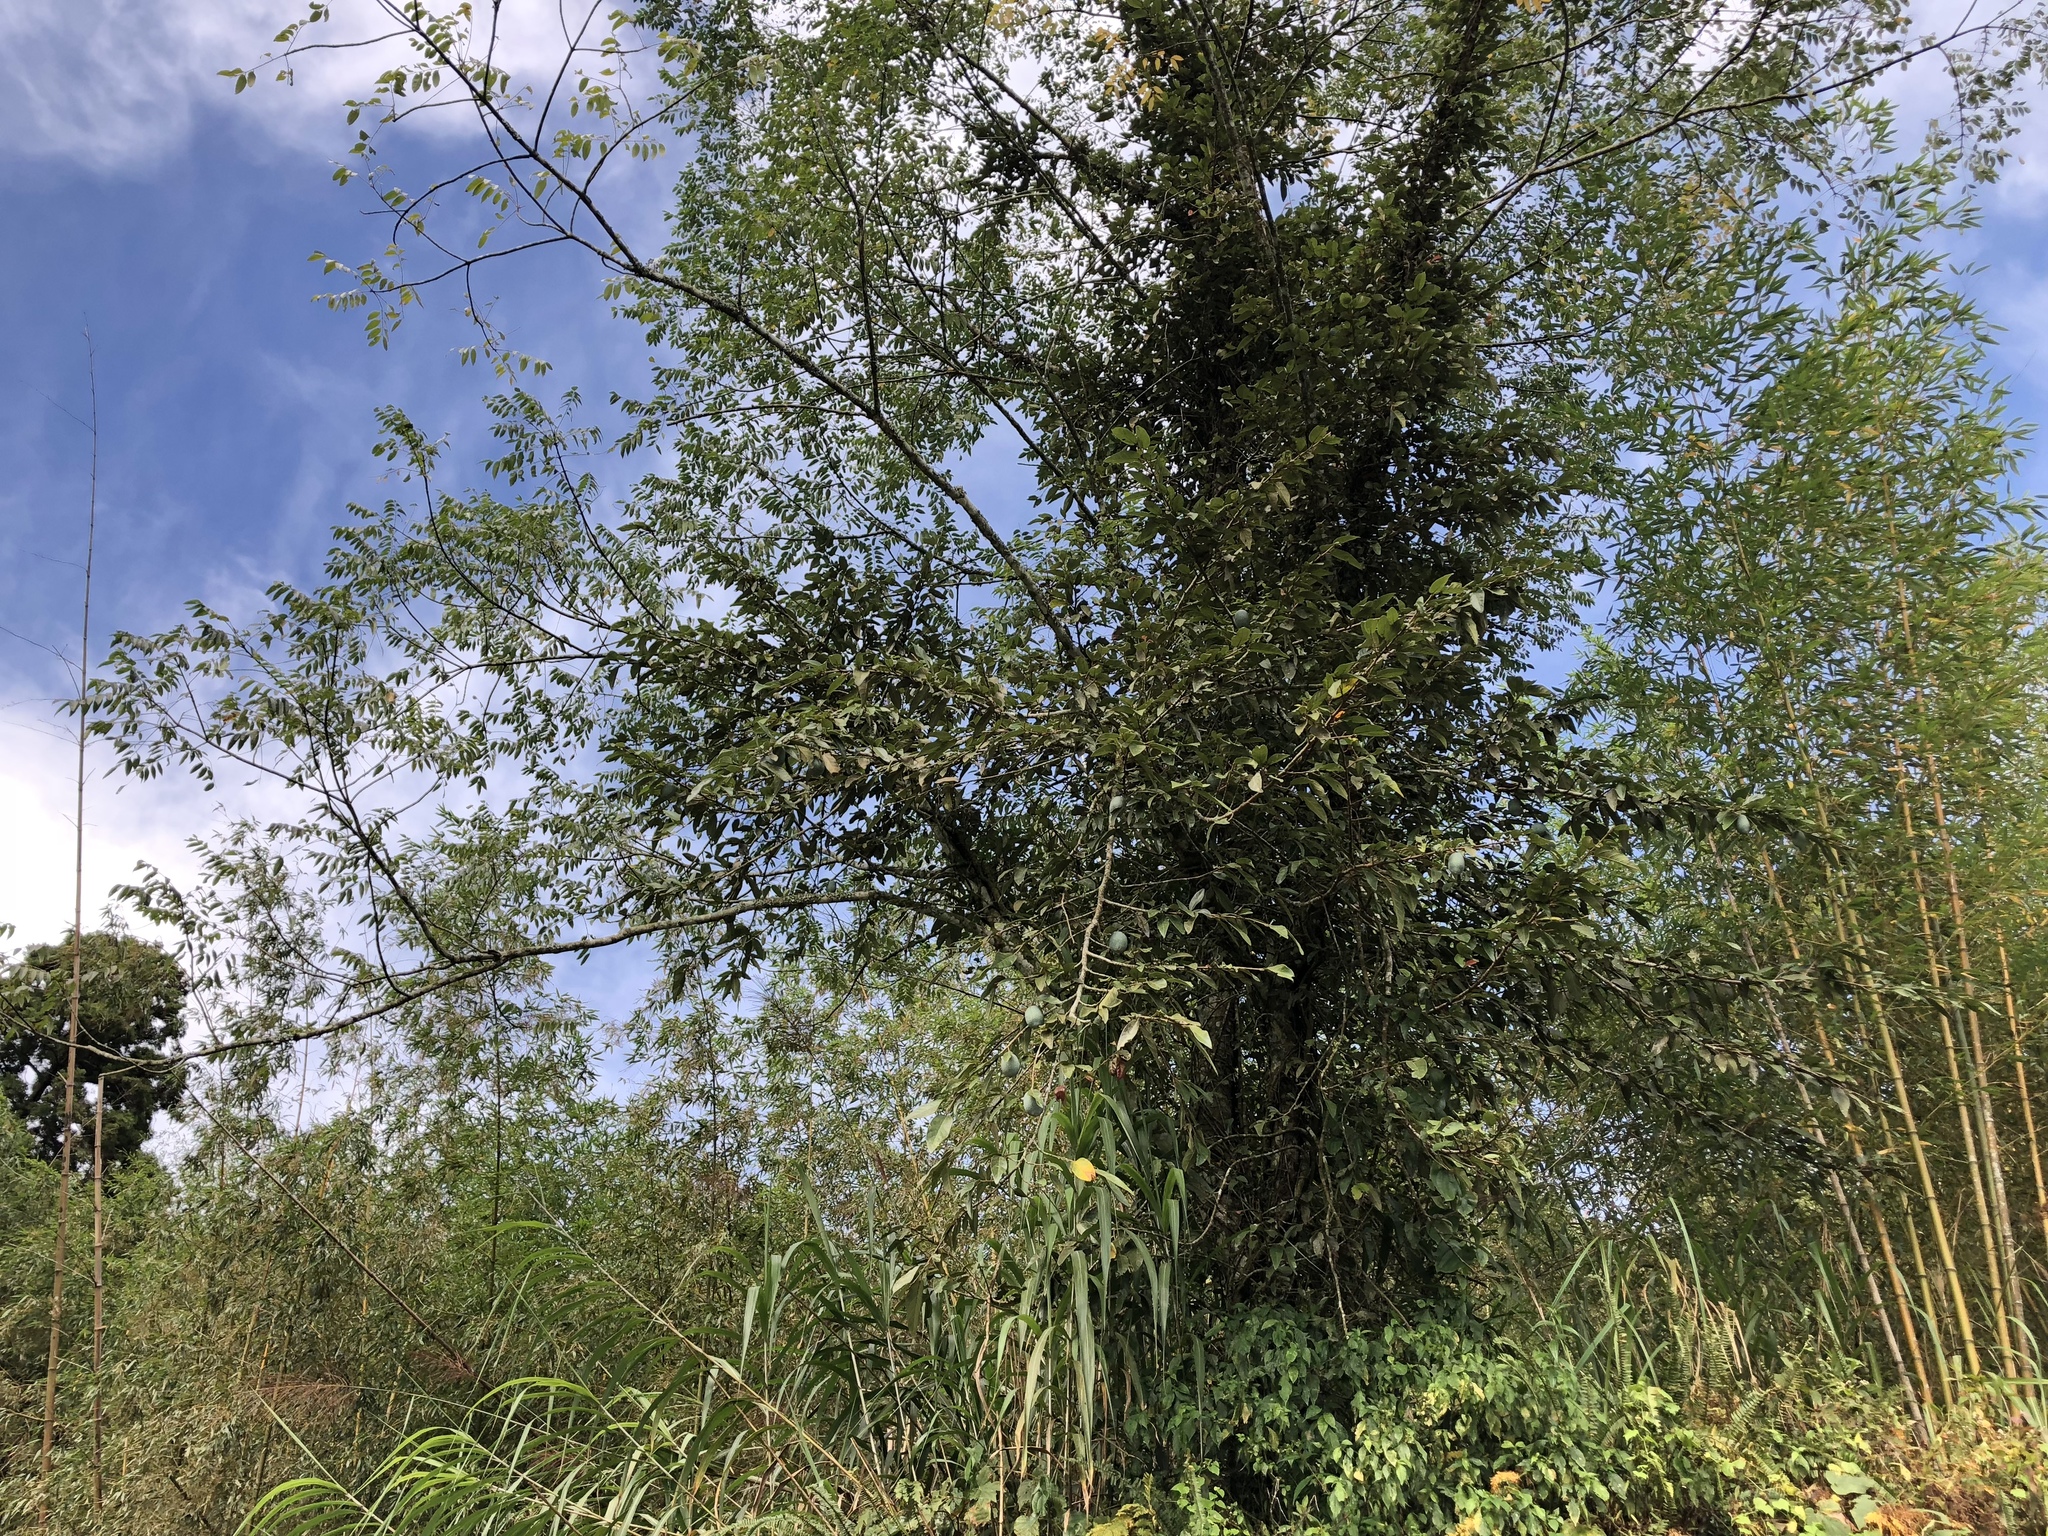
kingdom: Plantae
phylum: Tracheophyta
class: Magnoliopsida
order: Rosales
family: Moraceae
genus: Ficus
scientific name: Ficus pumila
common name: Climbingfig
